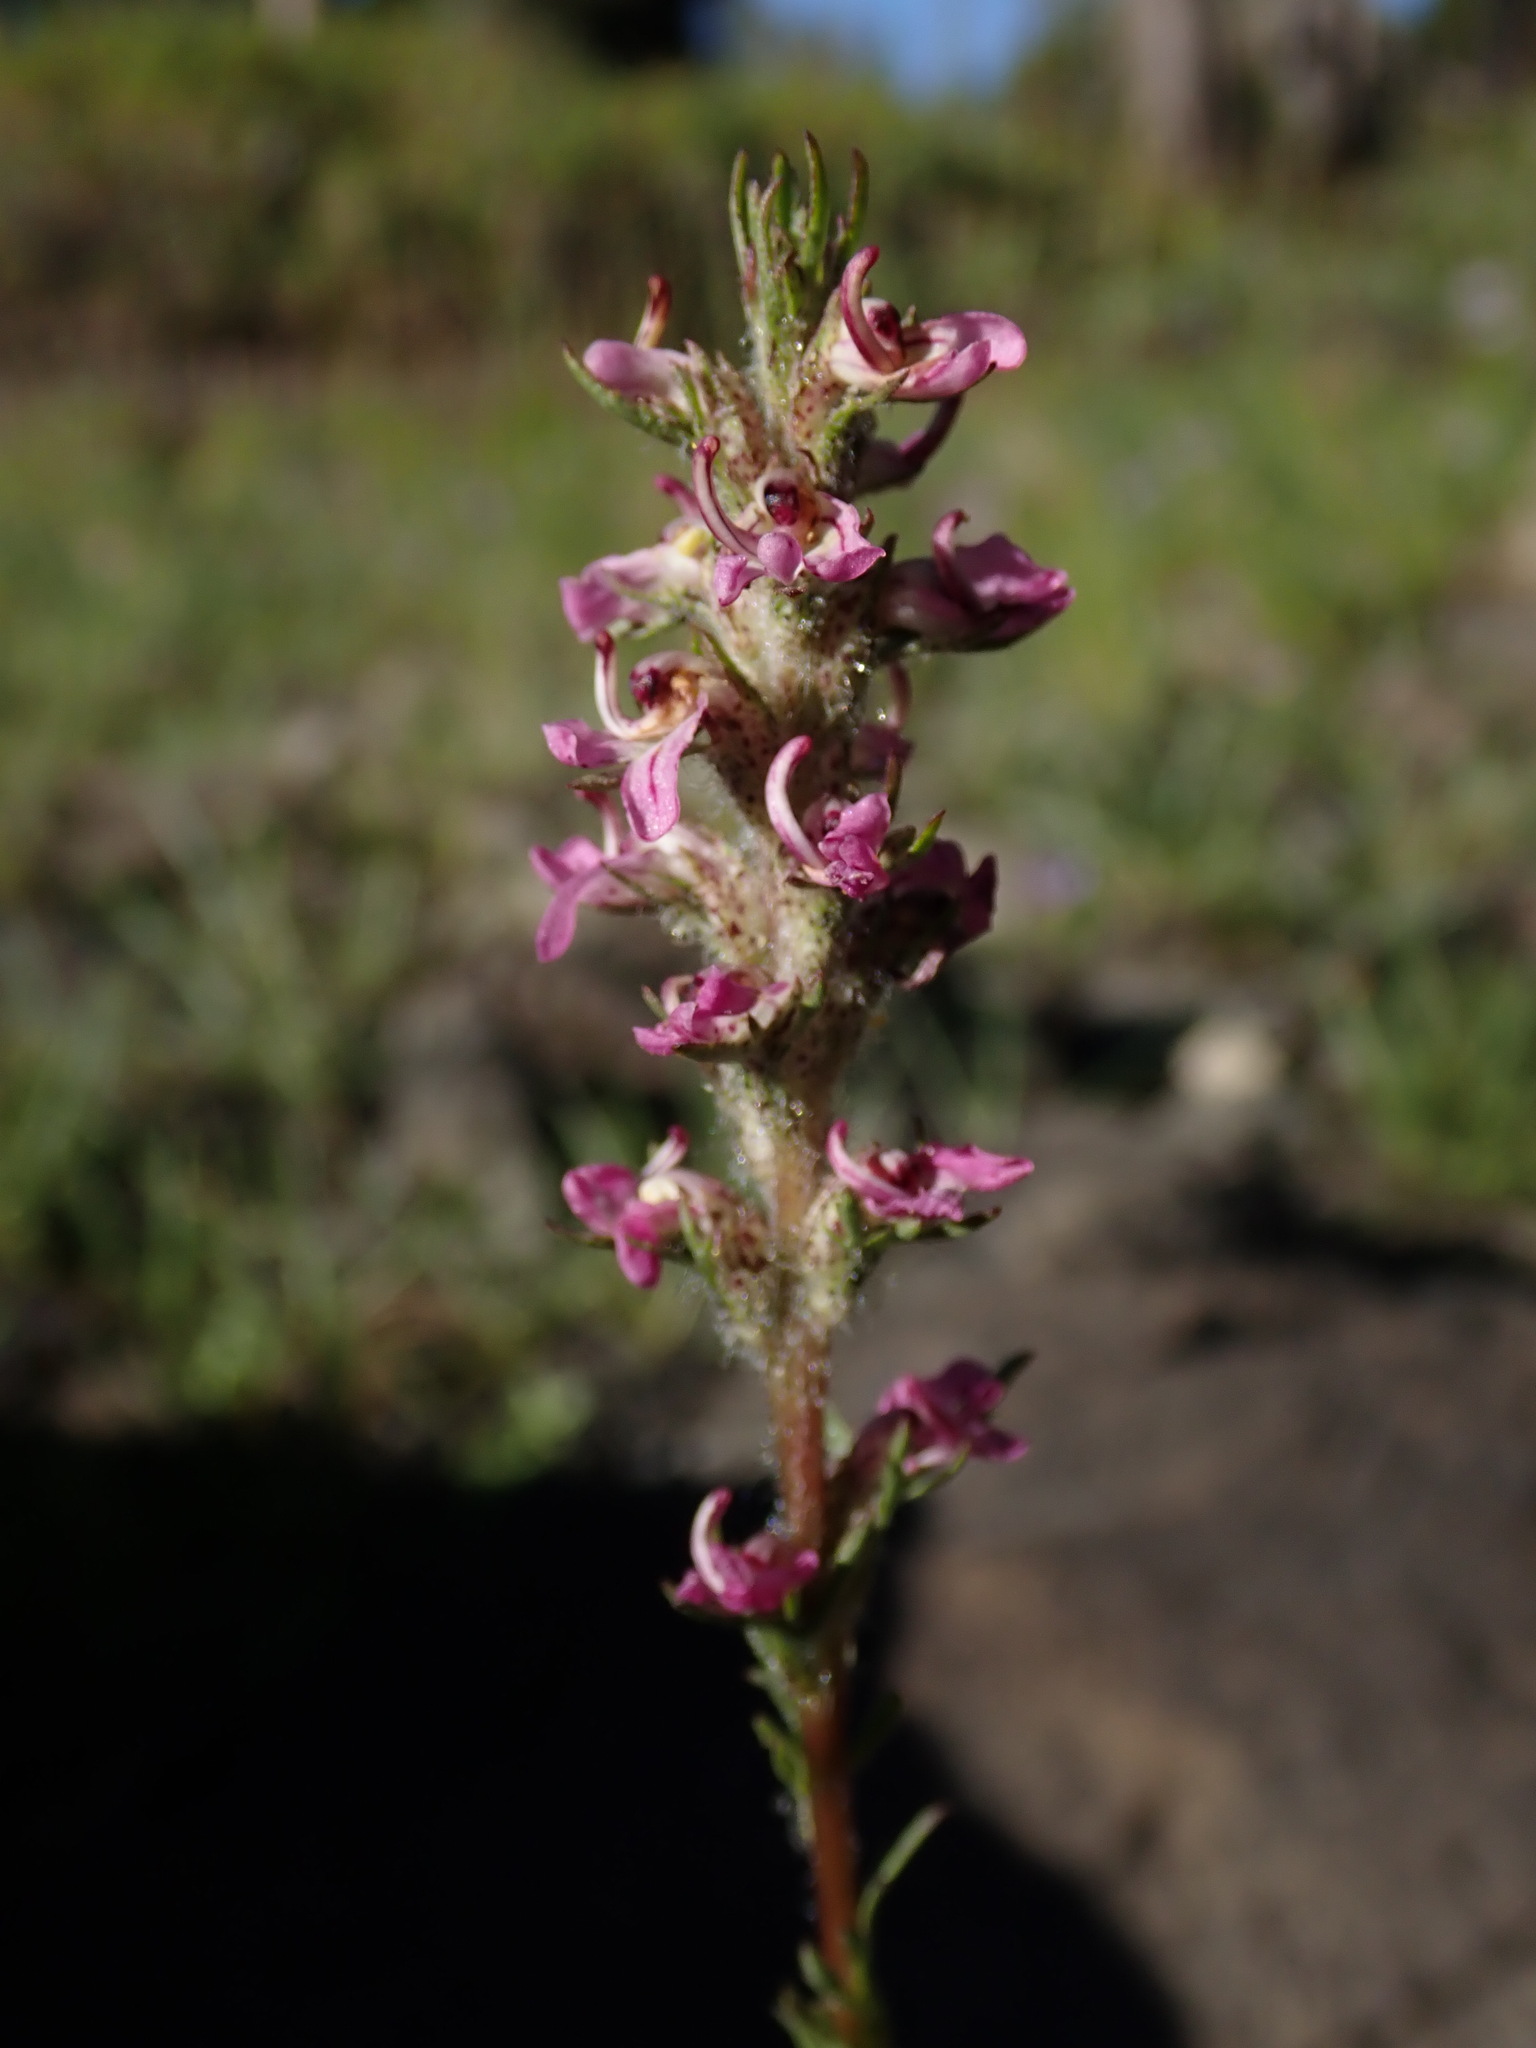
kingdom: Plantae
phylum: Tracheophyta
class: Magnoliopsida
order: Lamiales
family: Orobanchaceae
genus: Pedicularis
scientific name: Pedicularis attollens
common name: Slender pedicularis
